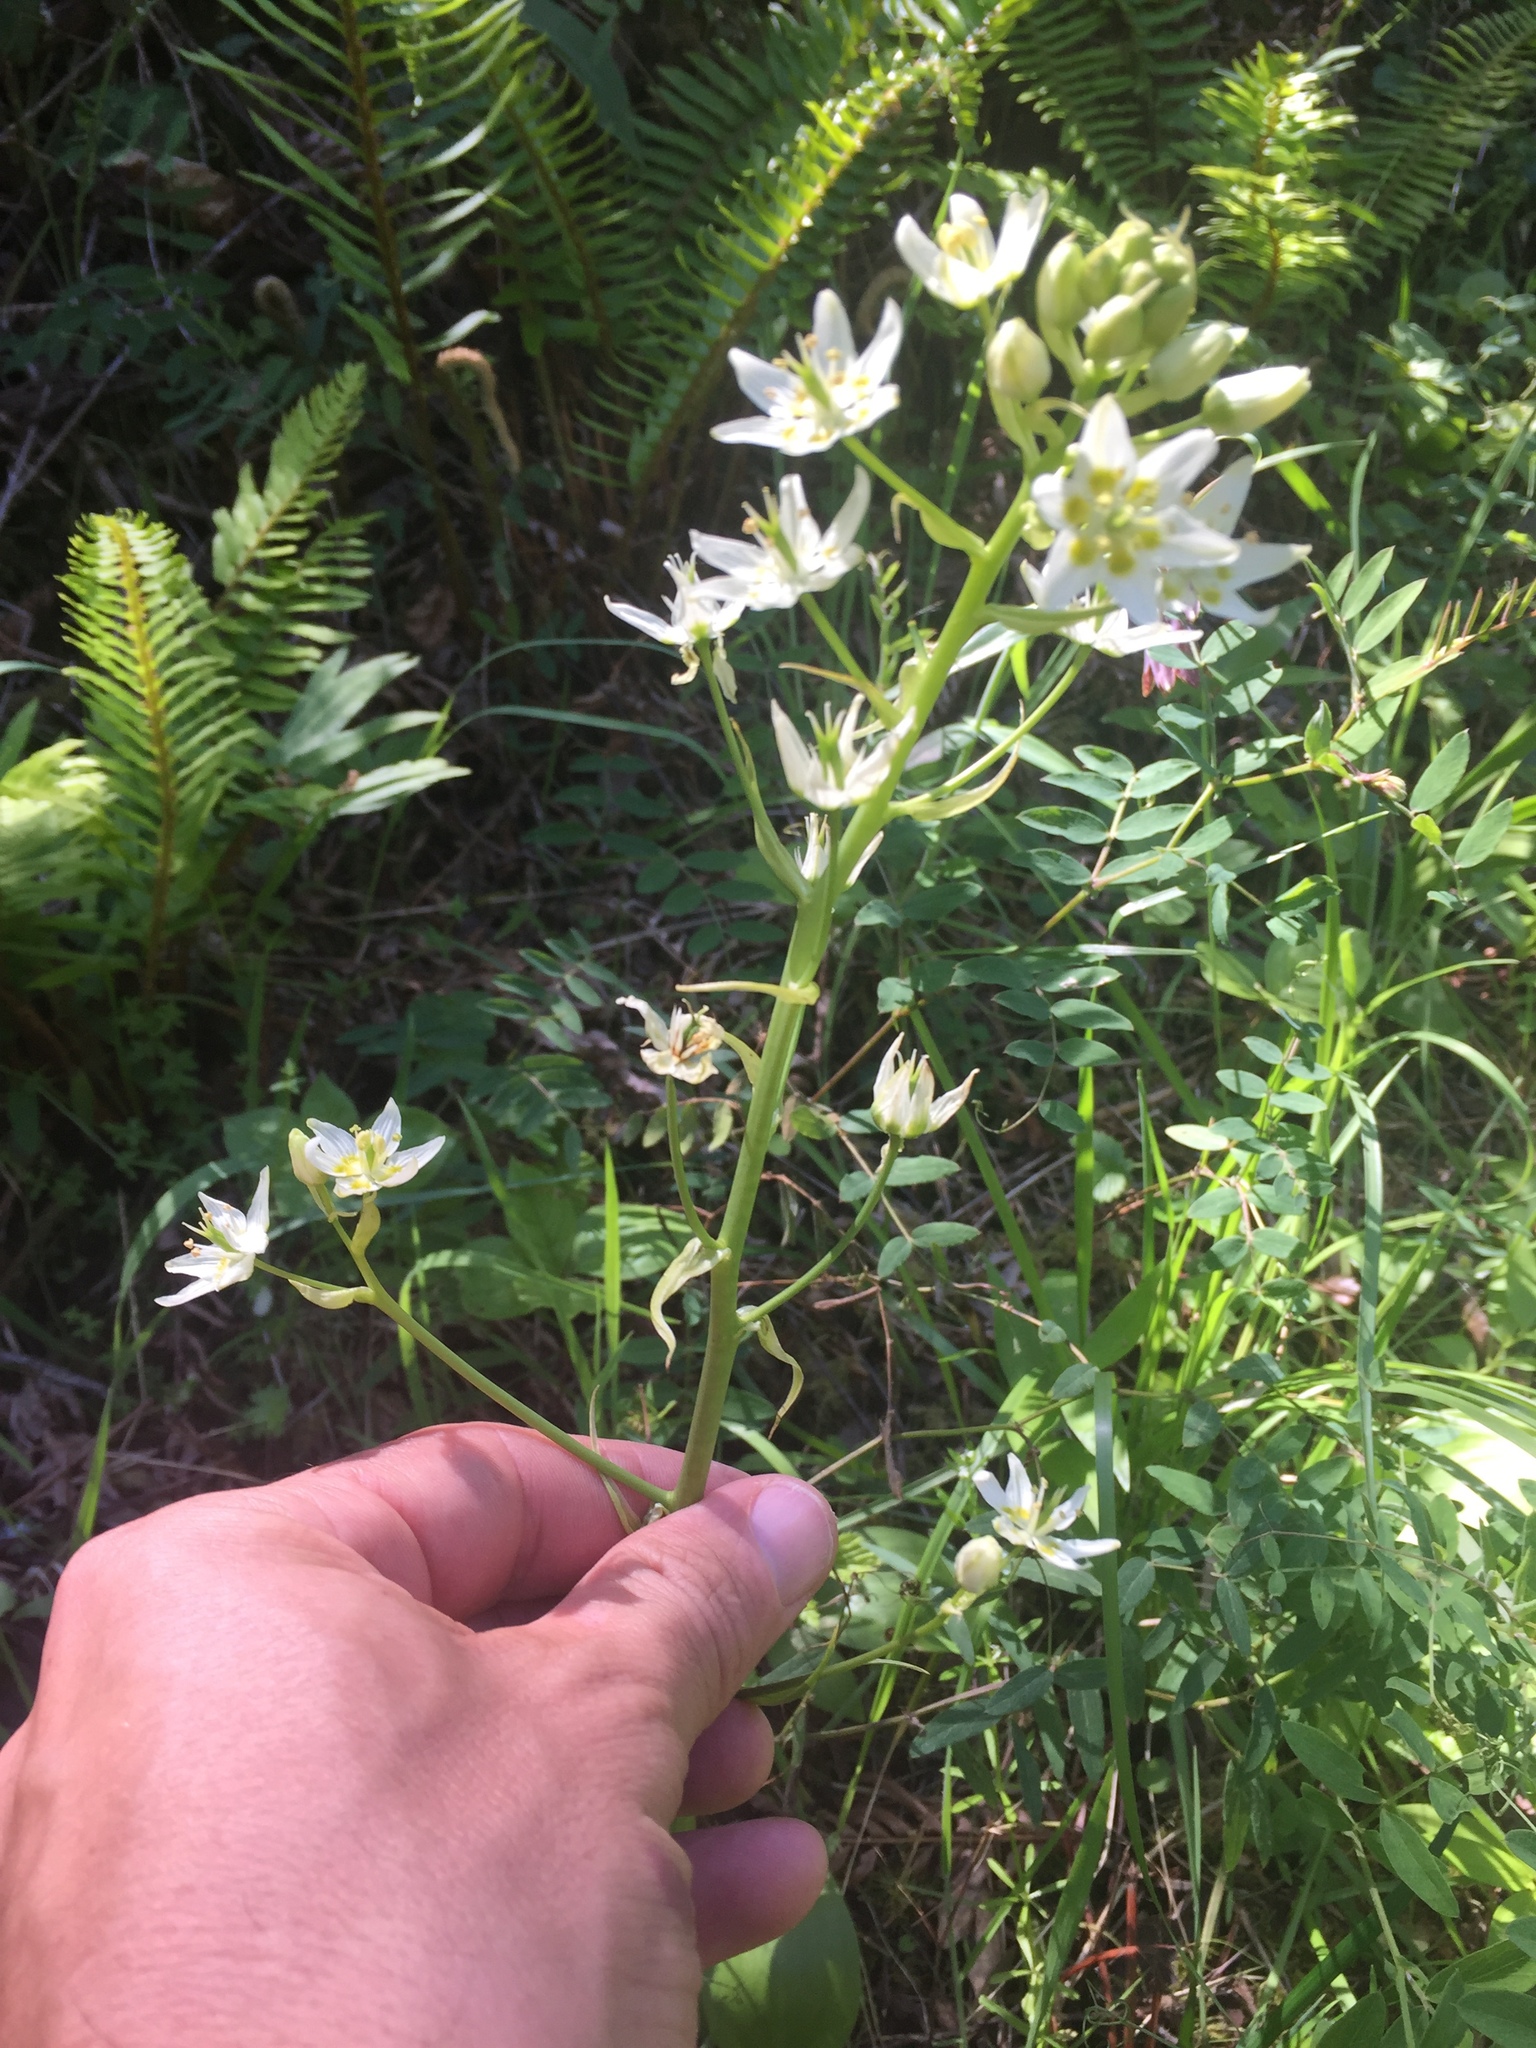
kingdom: Plantae
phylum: Tracheophyta
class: Liliopsida
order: Liliales
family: Melanthiaceae
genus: Toxicoscordion
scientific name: Toxicoscordion fremontii
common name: Fremont's death camas
